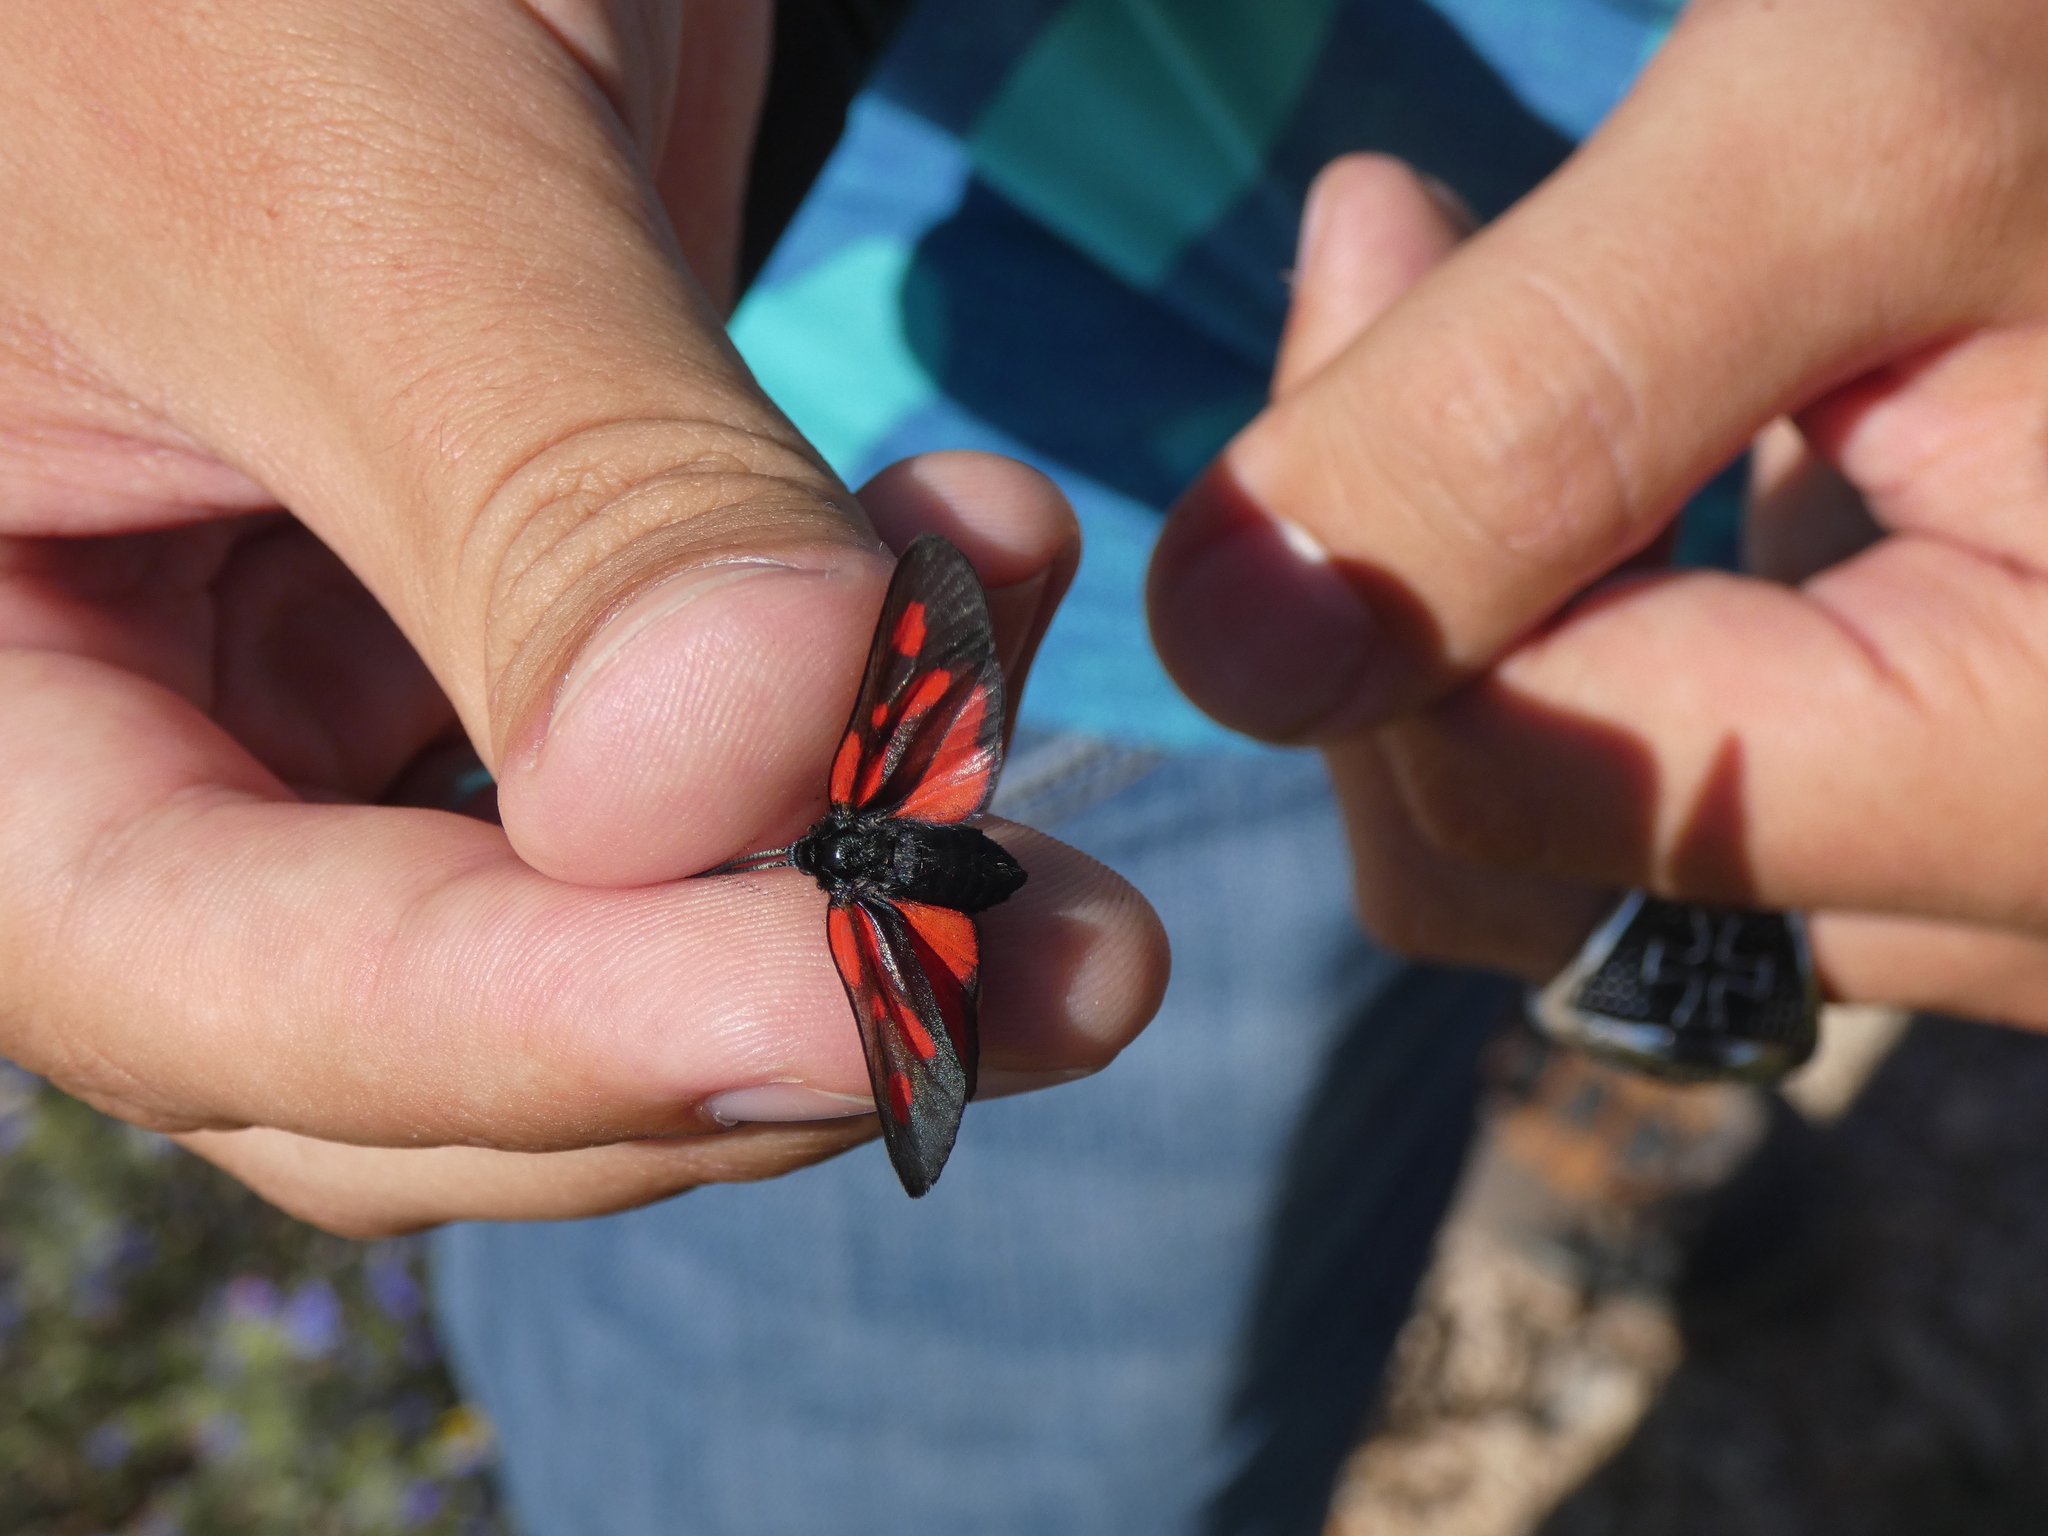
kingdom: Animalia
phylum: Arthropoda
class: Insecta
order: Lepidoptera
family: Zygaenidae
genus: Zygaena
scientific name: Zygaena romeo
